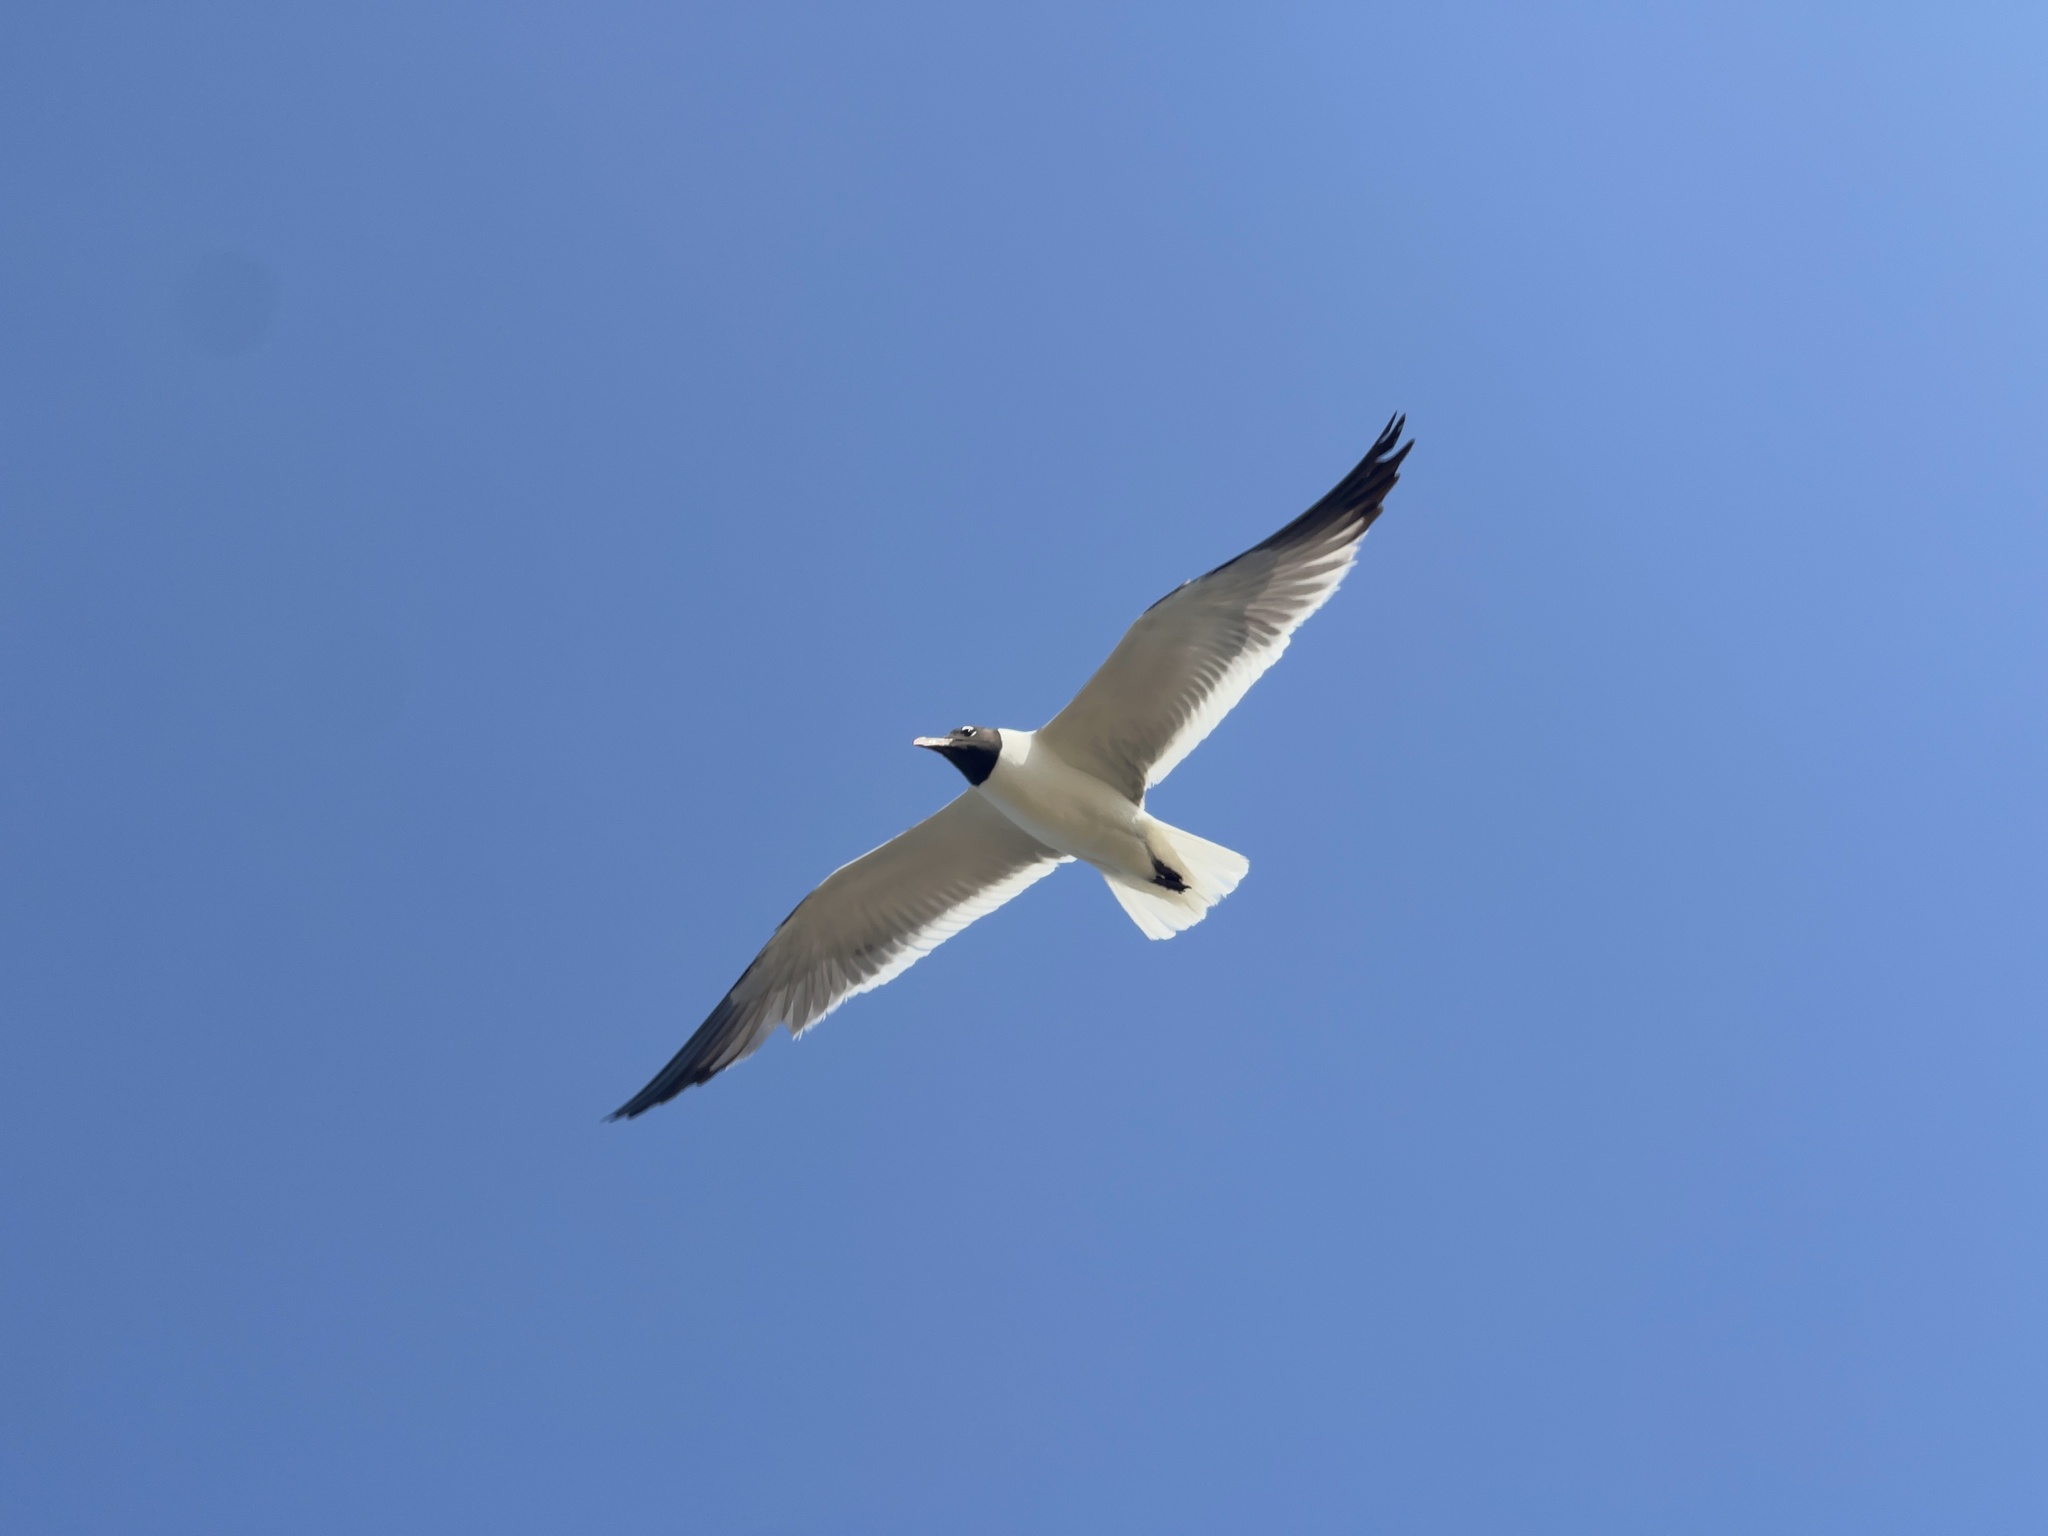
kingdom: Animalia
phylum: Chordata
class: Aves
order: Charadriiformes
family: Laridae
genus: Leucophaeus
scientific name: Leucophaeus atricilla
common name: Laughing gull
